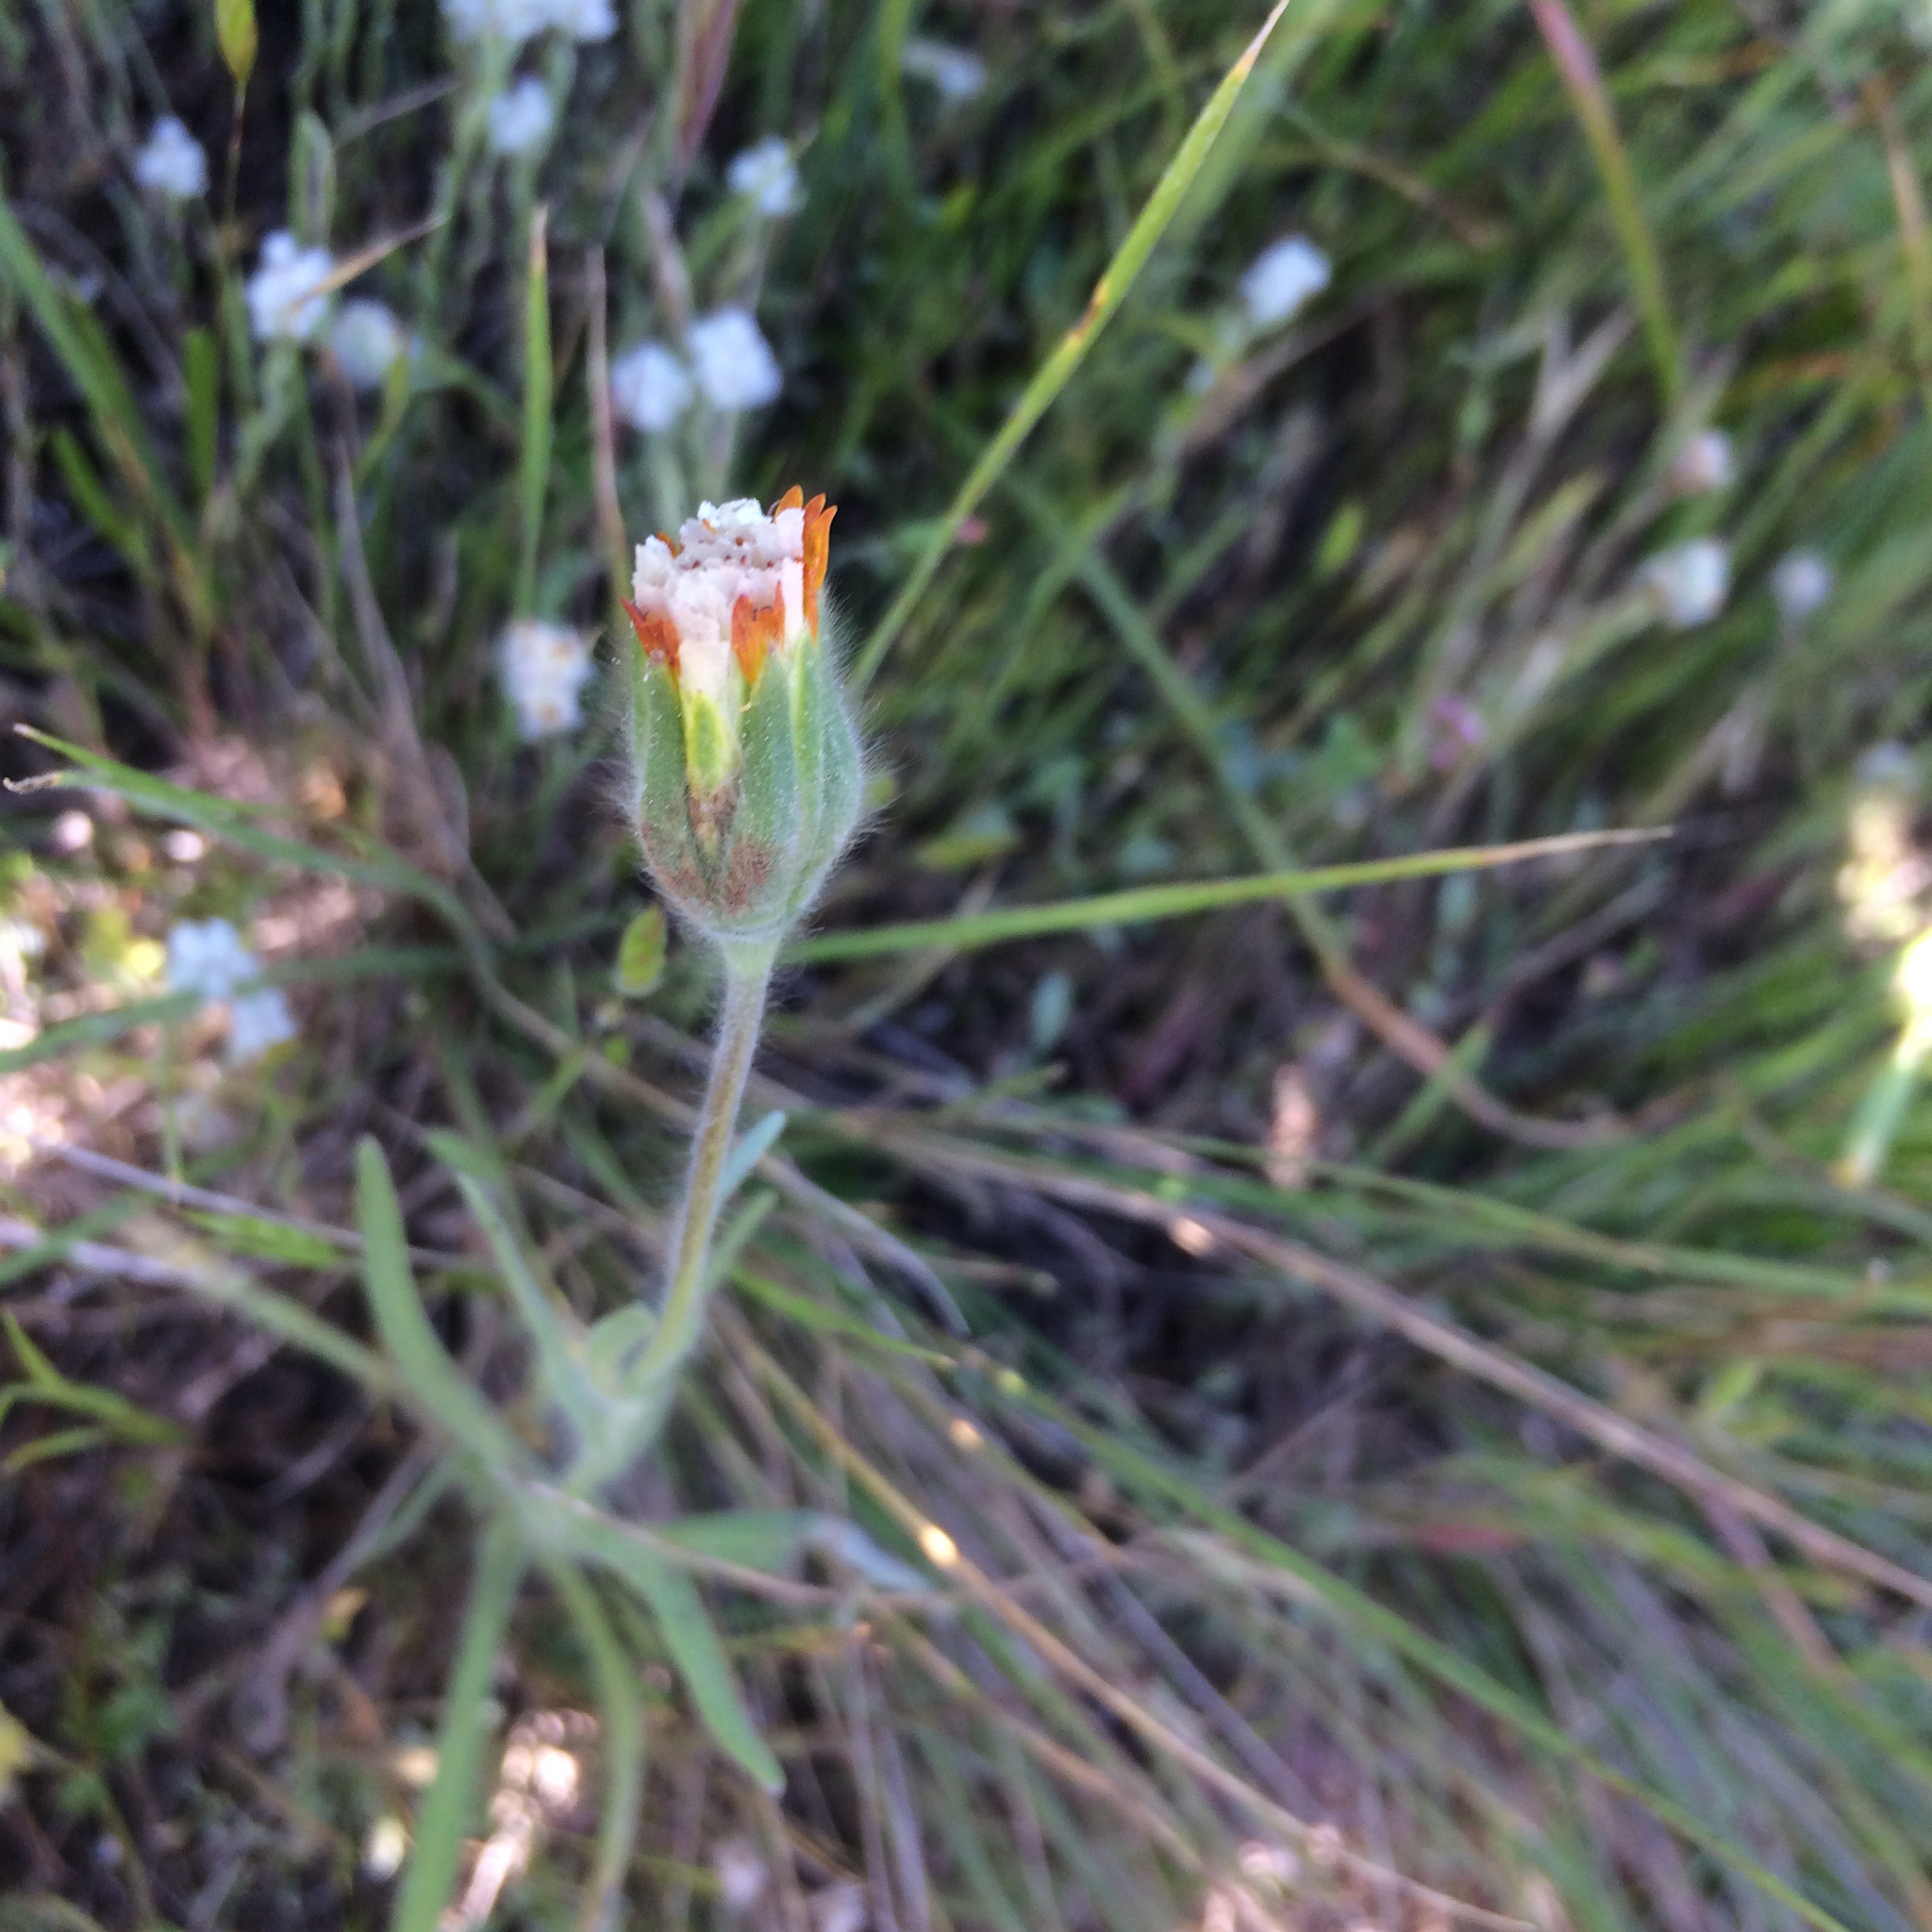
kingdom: Plantae
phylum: Tracheophyta
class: Magnoliopsida
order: Asterales
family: Asteraceae
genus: Achyrachaena
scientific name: Achyrachaena mollis
